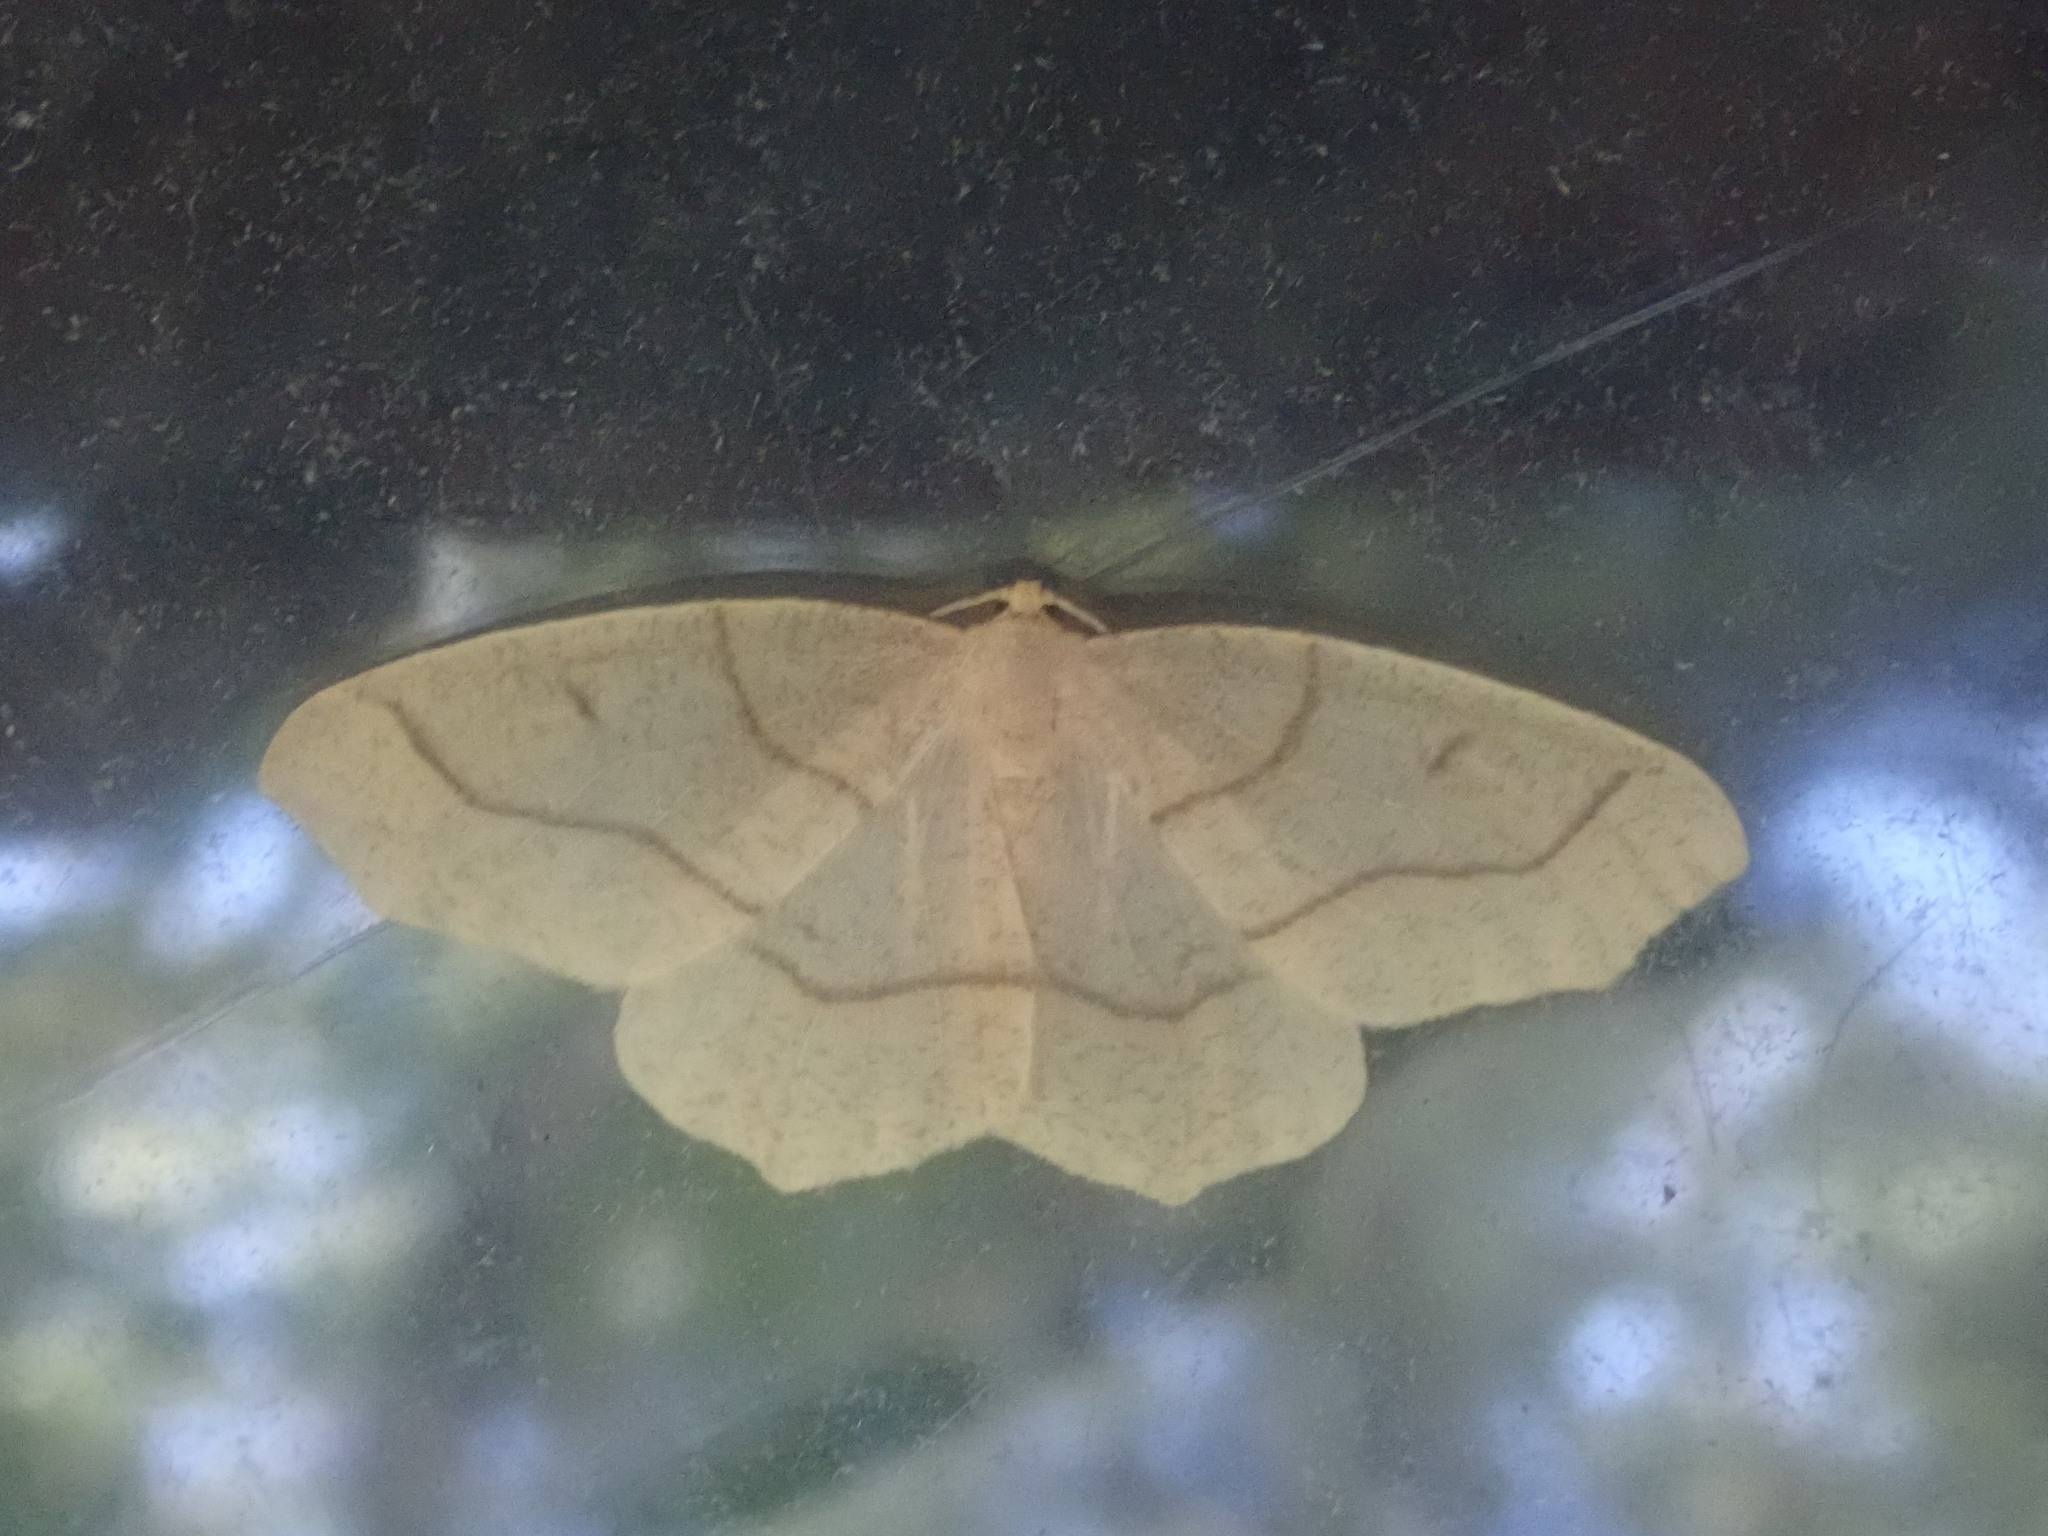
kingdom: Animalia
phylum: Arthropoda
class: Insecta
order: Lepidoptera
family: Geometridae
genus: Lambdina
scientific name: Lambdina fiscellaria
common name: Hemlock looper
